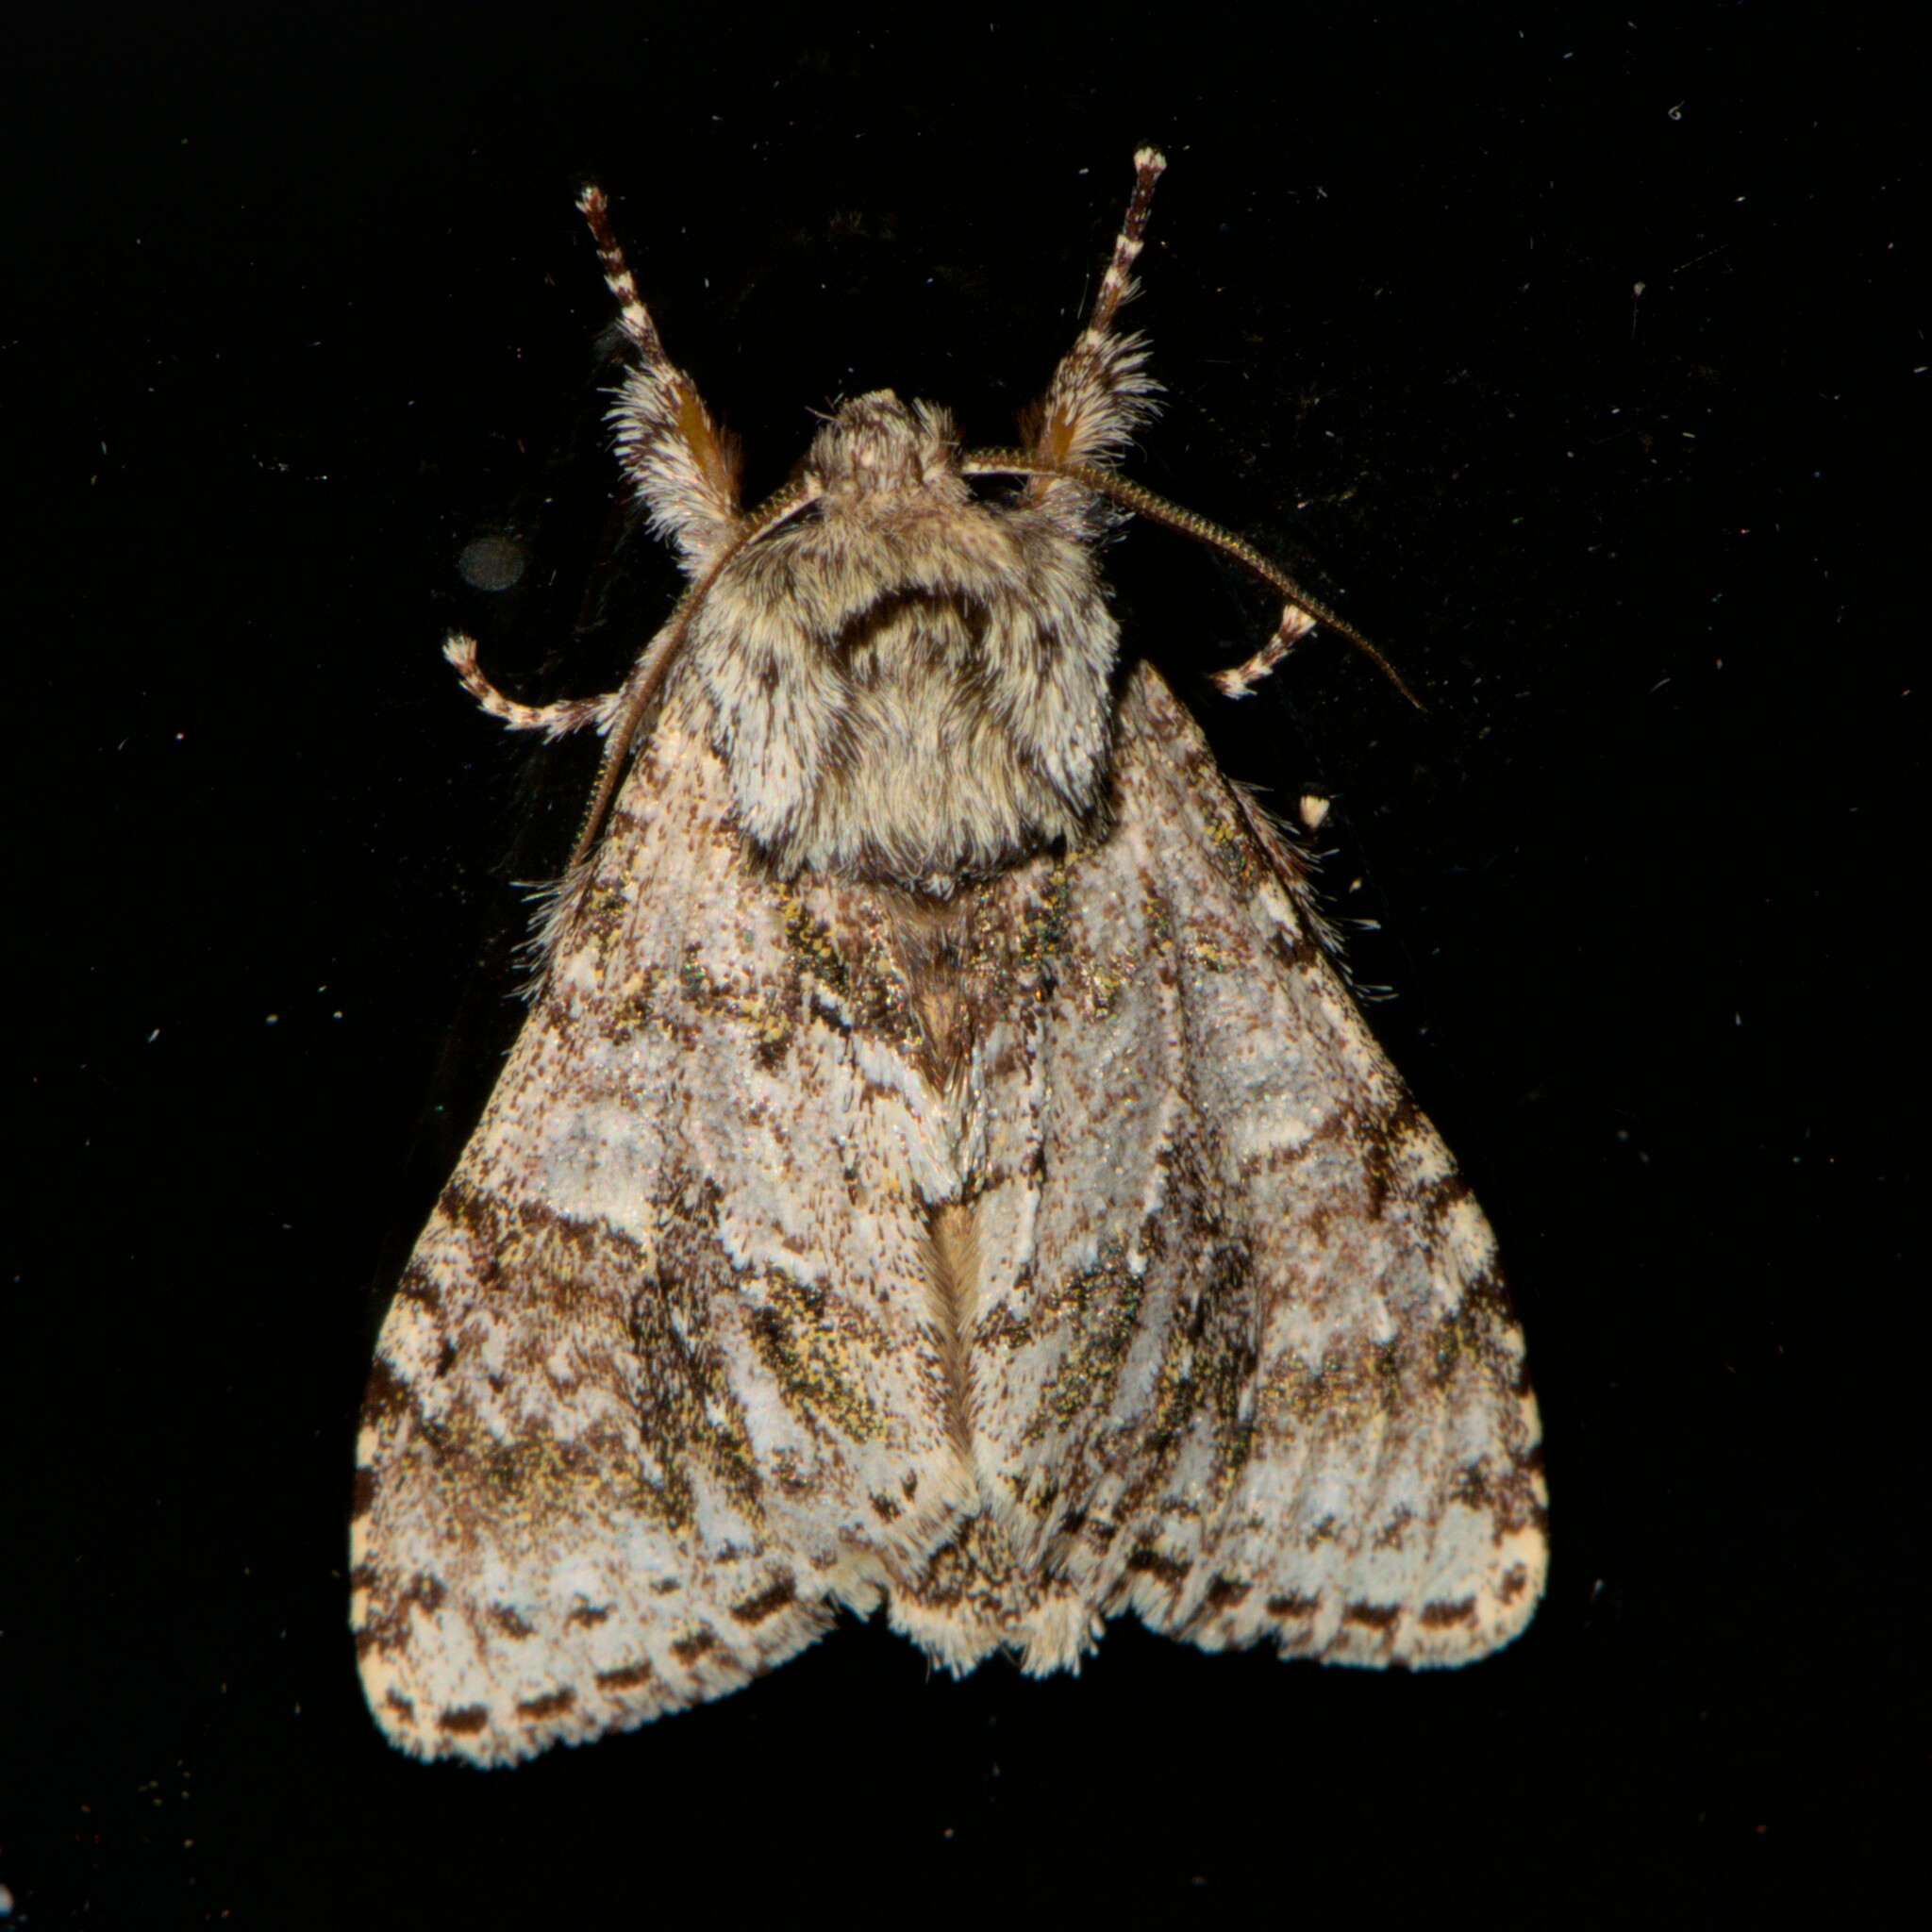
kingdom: Animalia
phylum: Arthropoda
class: Insecta
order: Lepidoptera
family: Notodontidae
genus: Pheosiopsis
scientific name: Pheosiopsis irrorata
